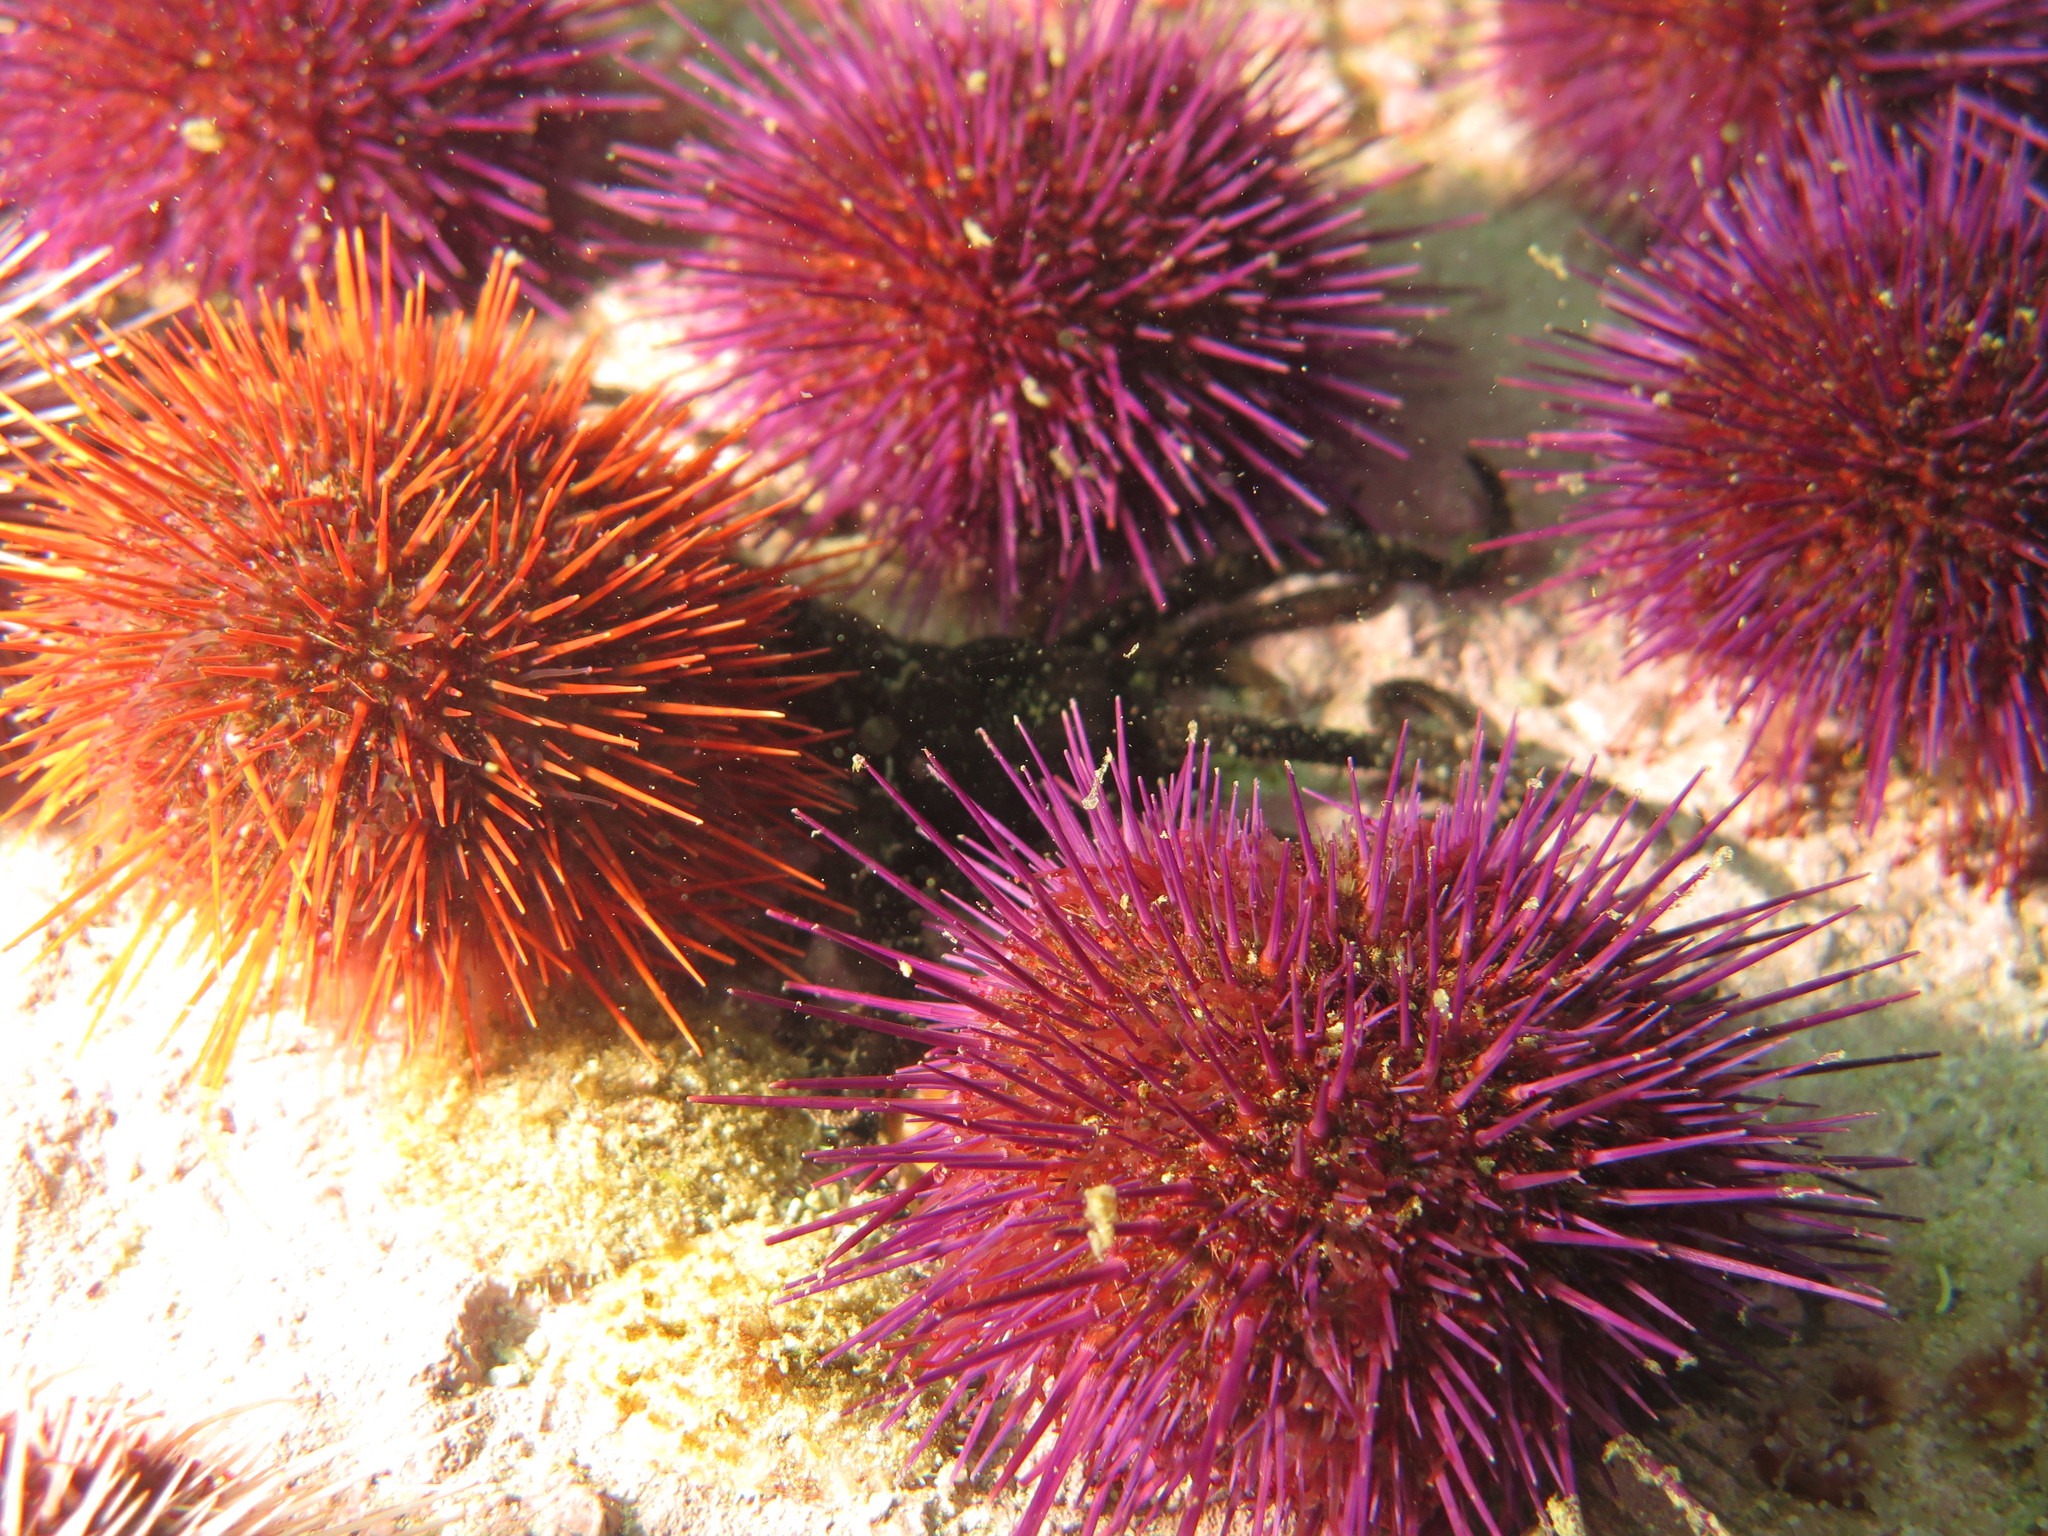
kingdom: Animalia
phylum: Echinodermata
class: Echinoidea
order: Camarodonta
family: Parechinidae
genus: Parechinus
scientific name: Parechinus angulosus
